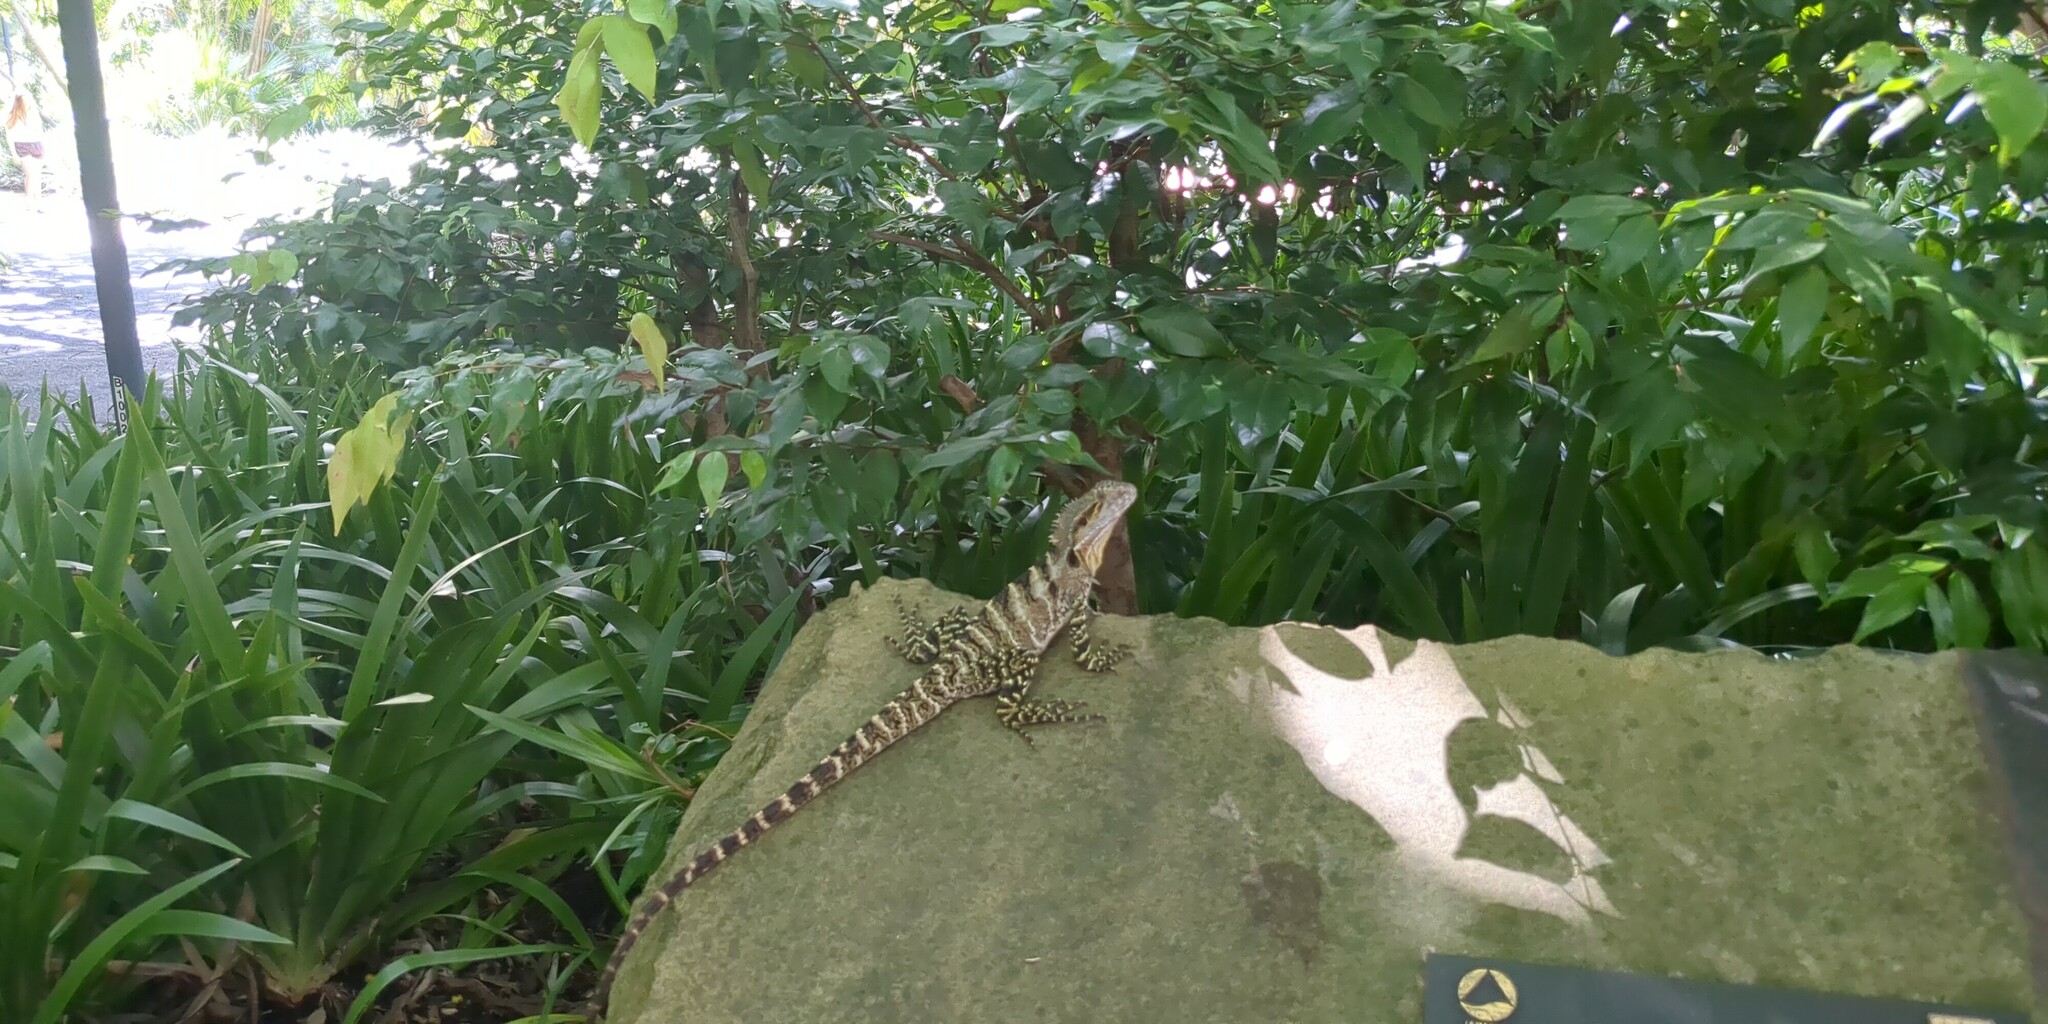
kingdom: Animalia
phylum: Chordata
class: Squamata
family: Agamidae
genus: Intellagama
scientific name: Intellagama lesueurii
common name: Eastern water dragon
